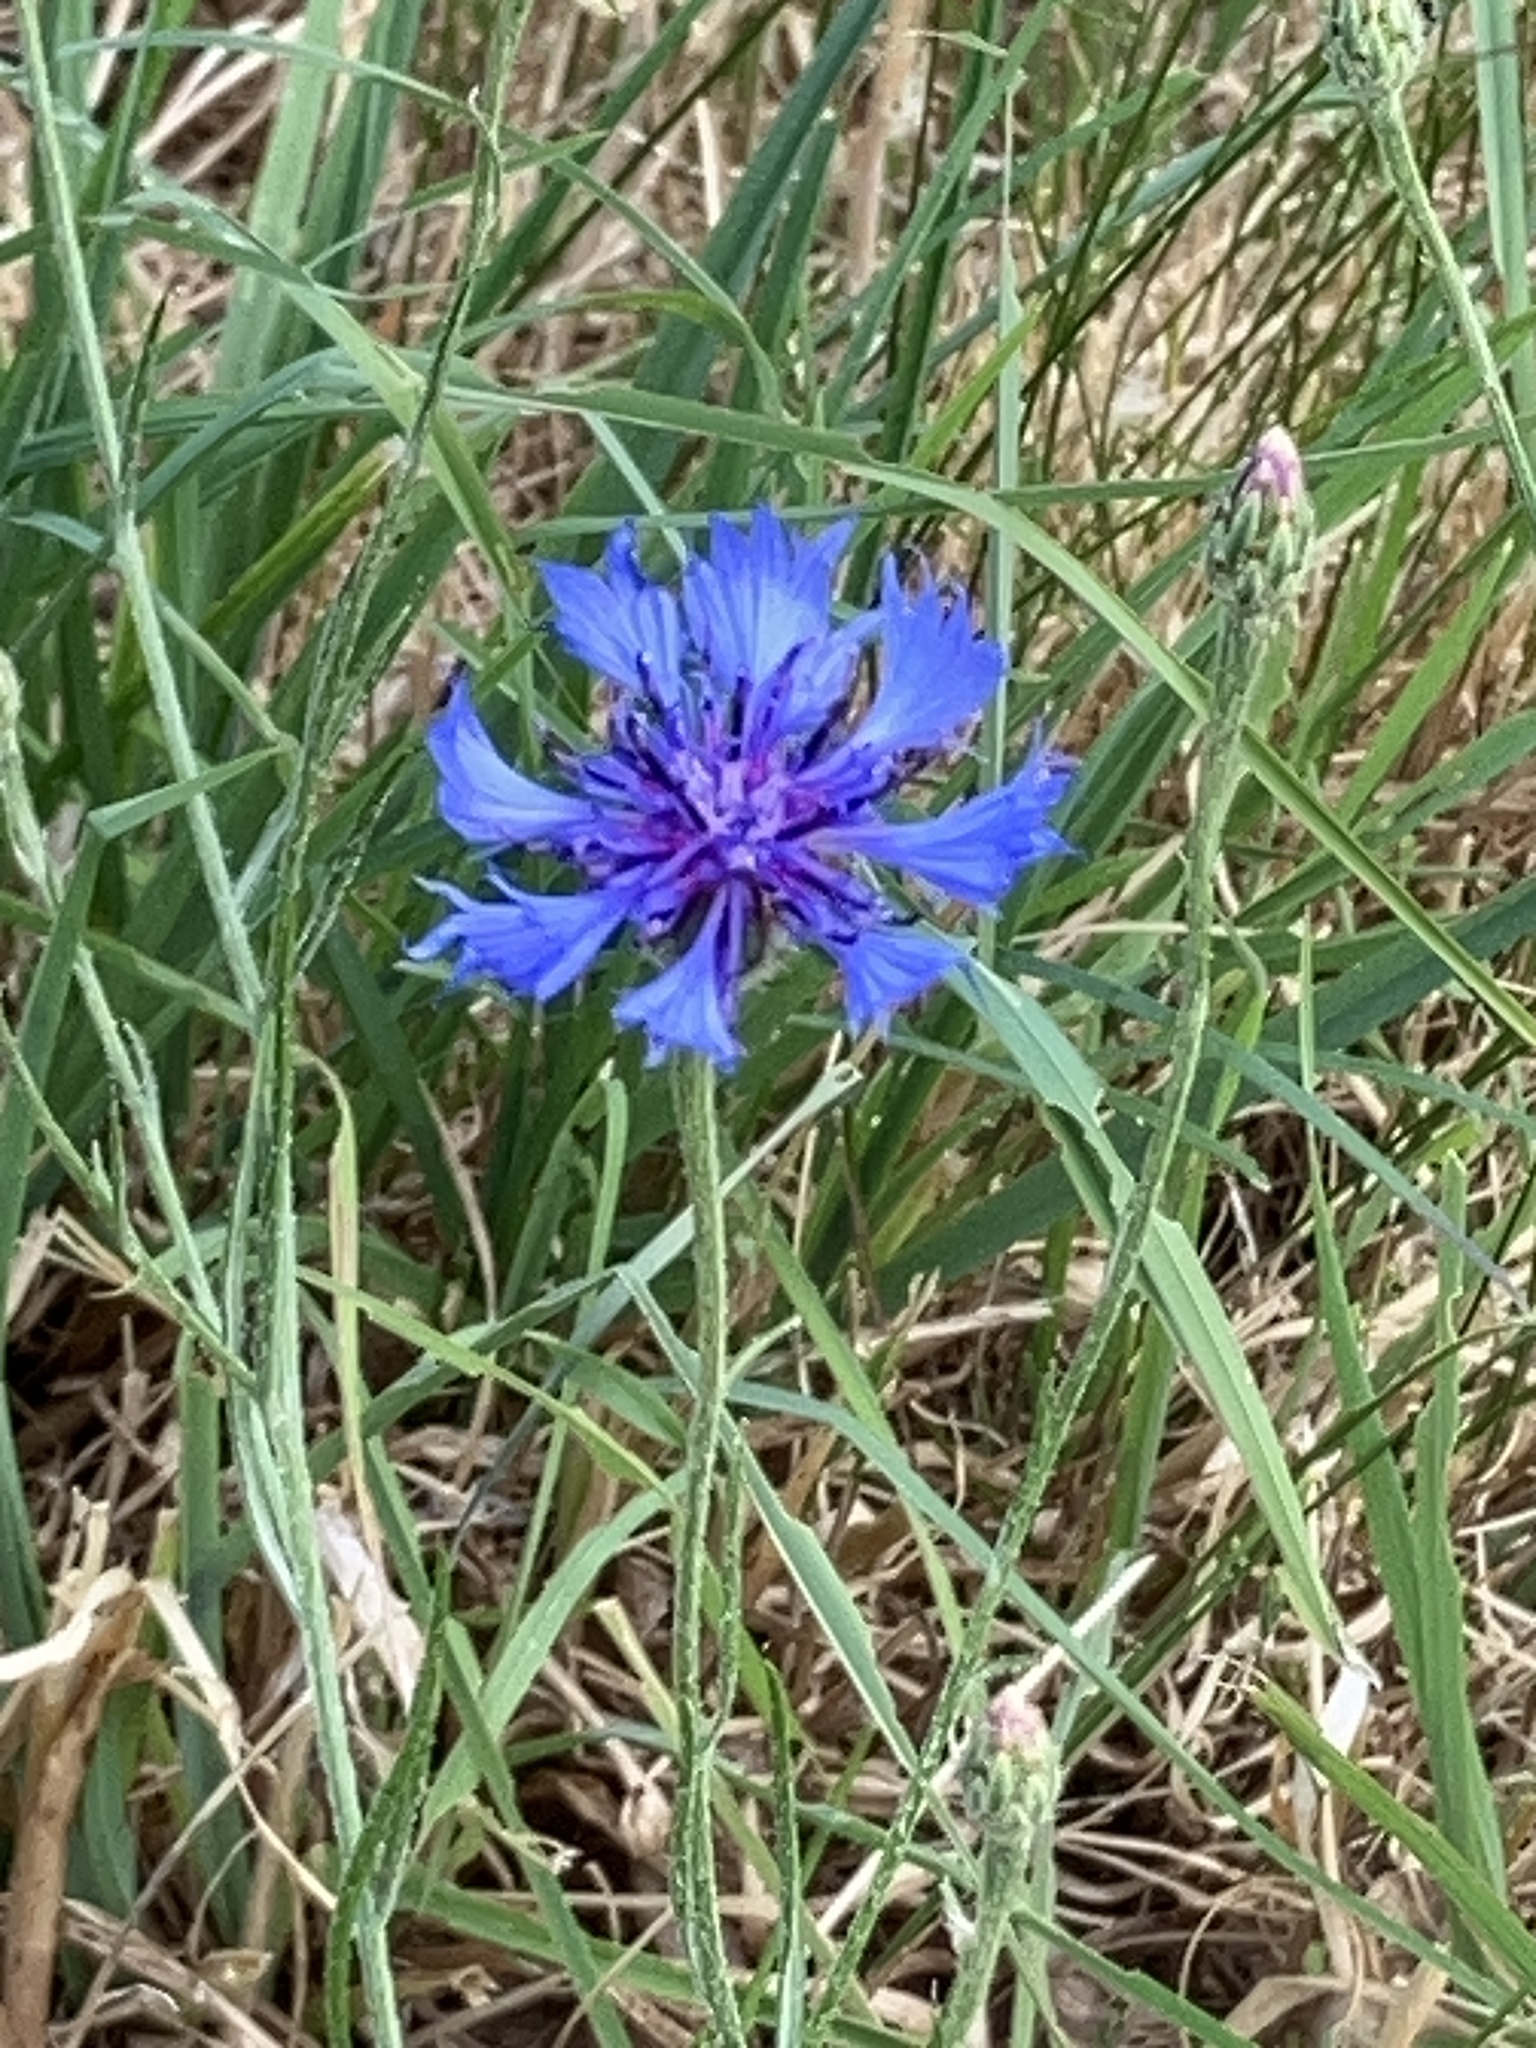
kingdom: Plantae
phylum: Tracheophyta
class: Magnoliopsida
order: Asterales
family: Asteraceae
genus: Centaurea
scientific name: Centaurea cyanus
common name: Cornflower
